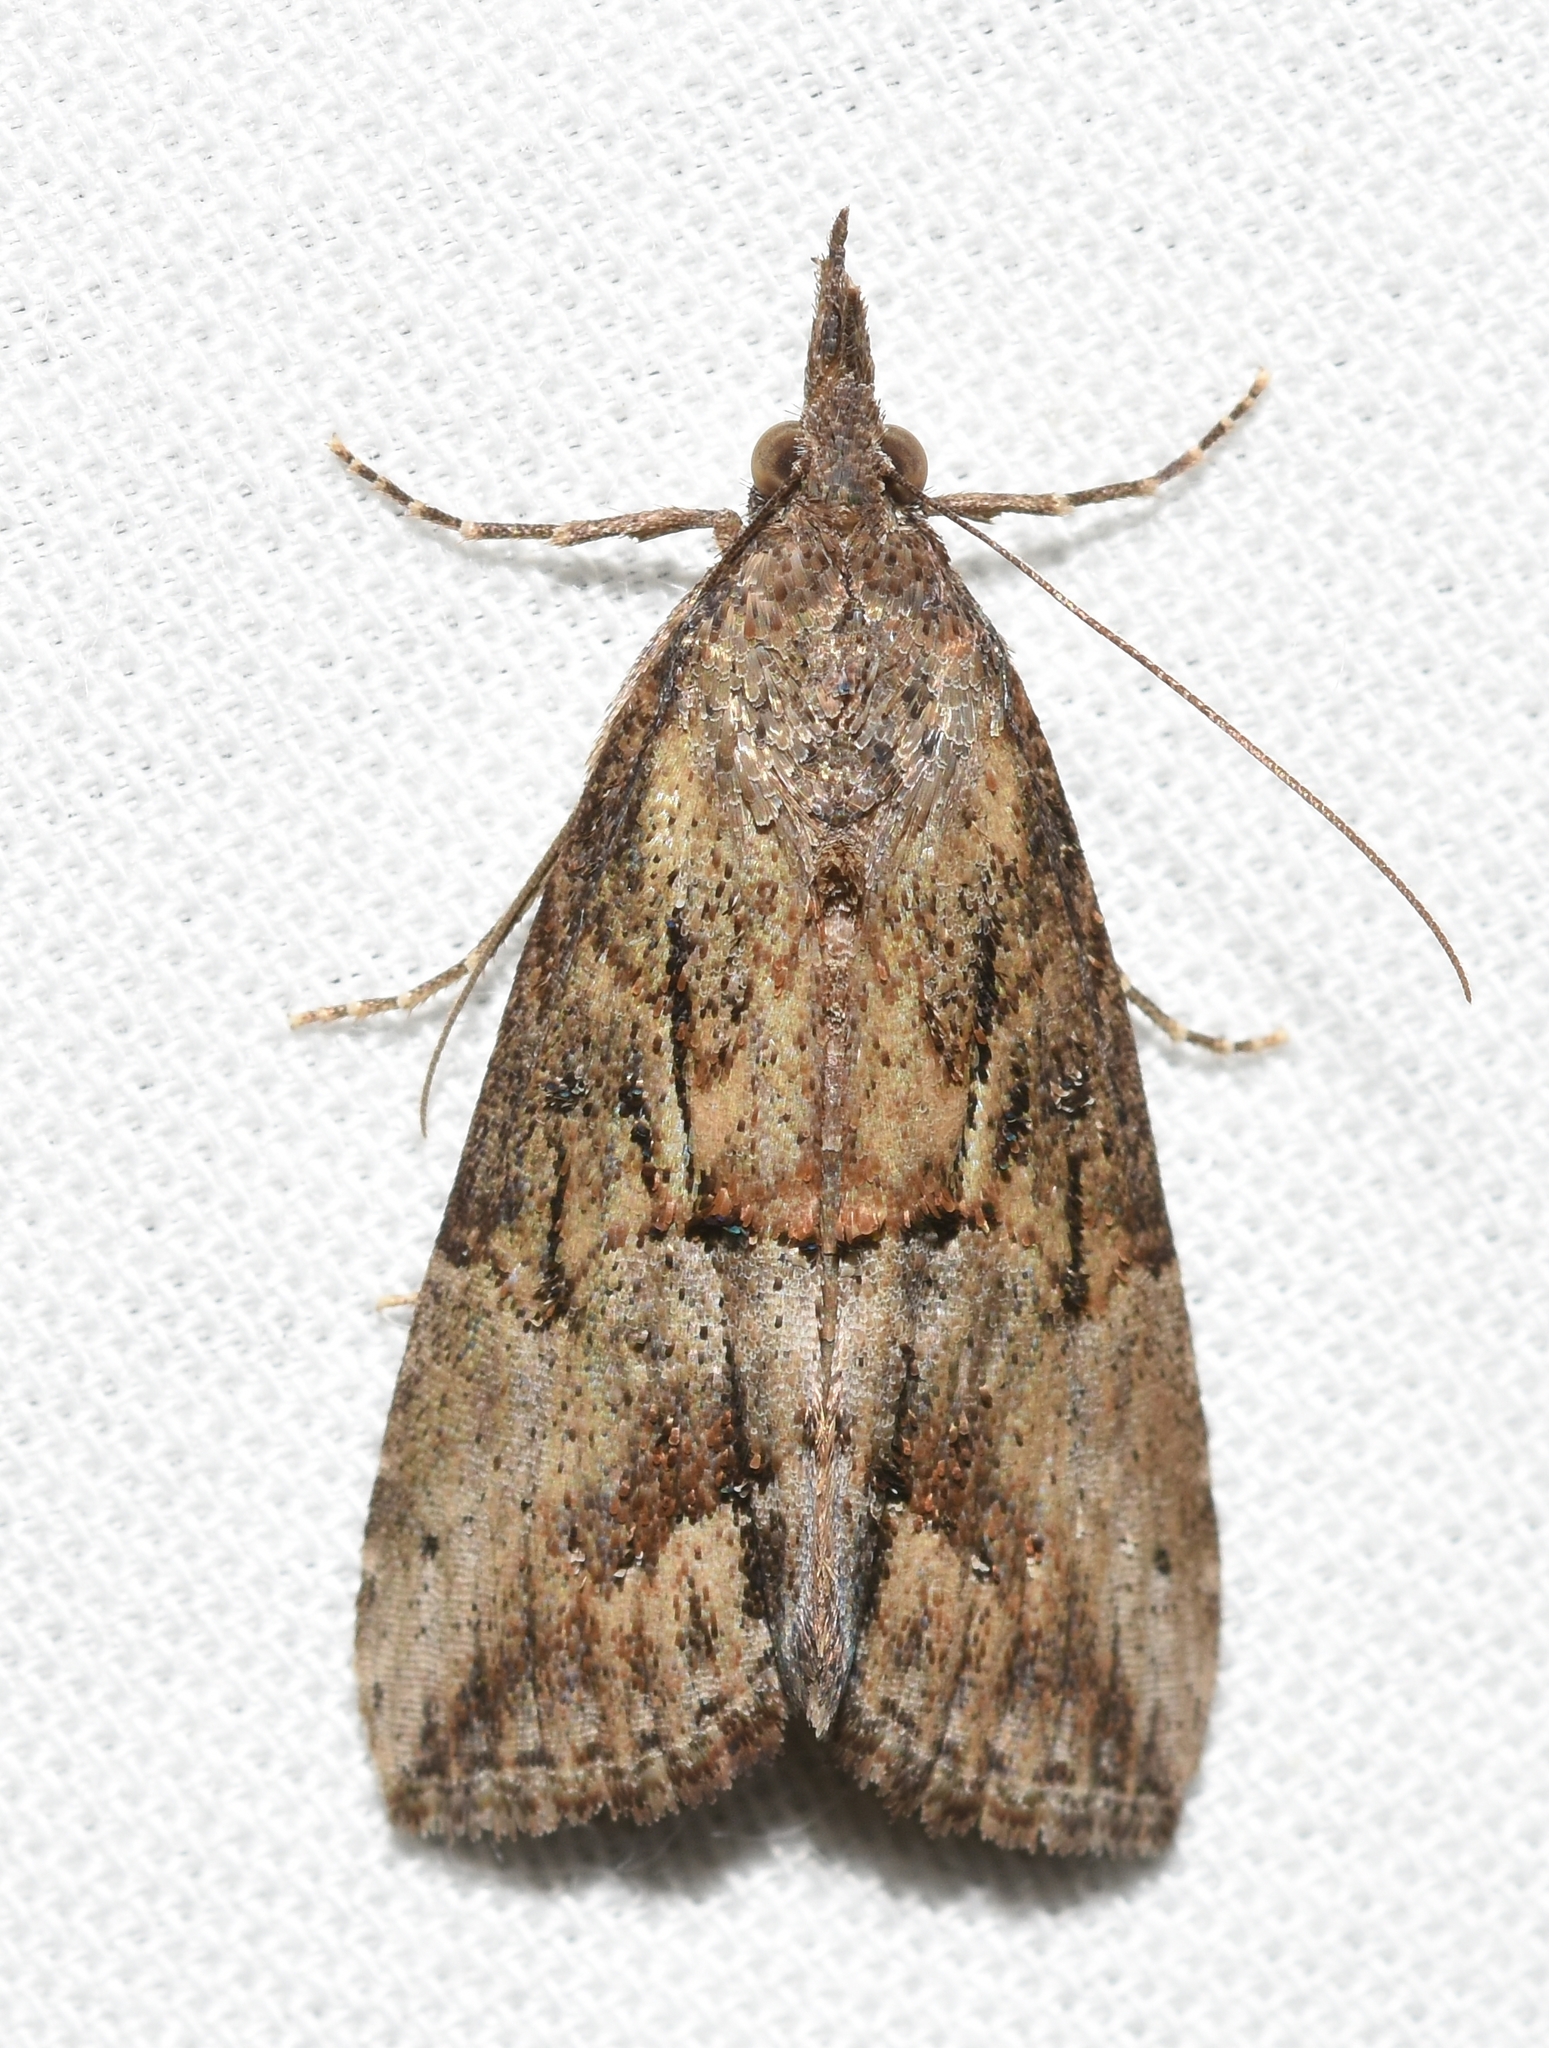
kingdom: Animalia
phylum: Arthropoda
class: Insecta
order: Lepidoptera
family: Erebidae
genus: Hypena
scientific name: Hypena scabra
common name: Green cloverworm
